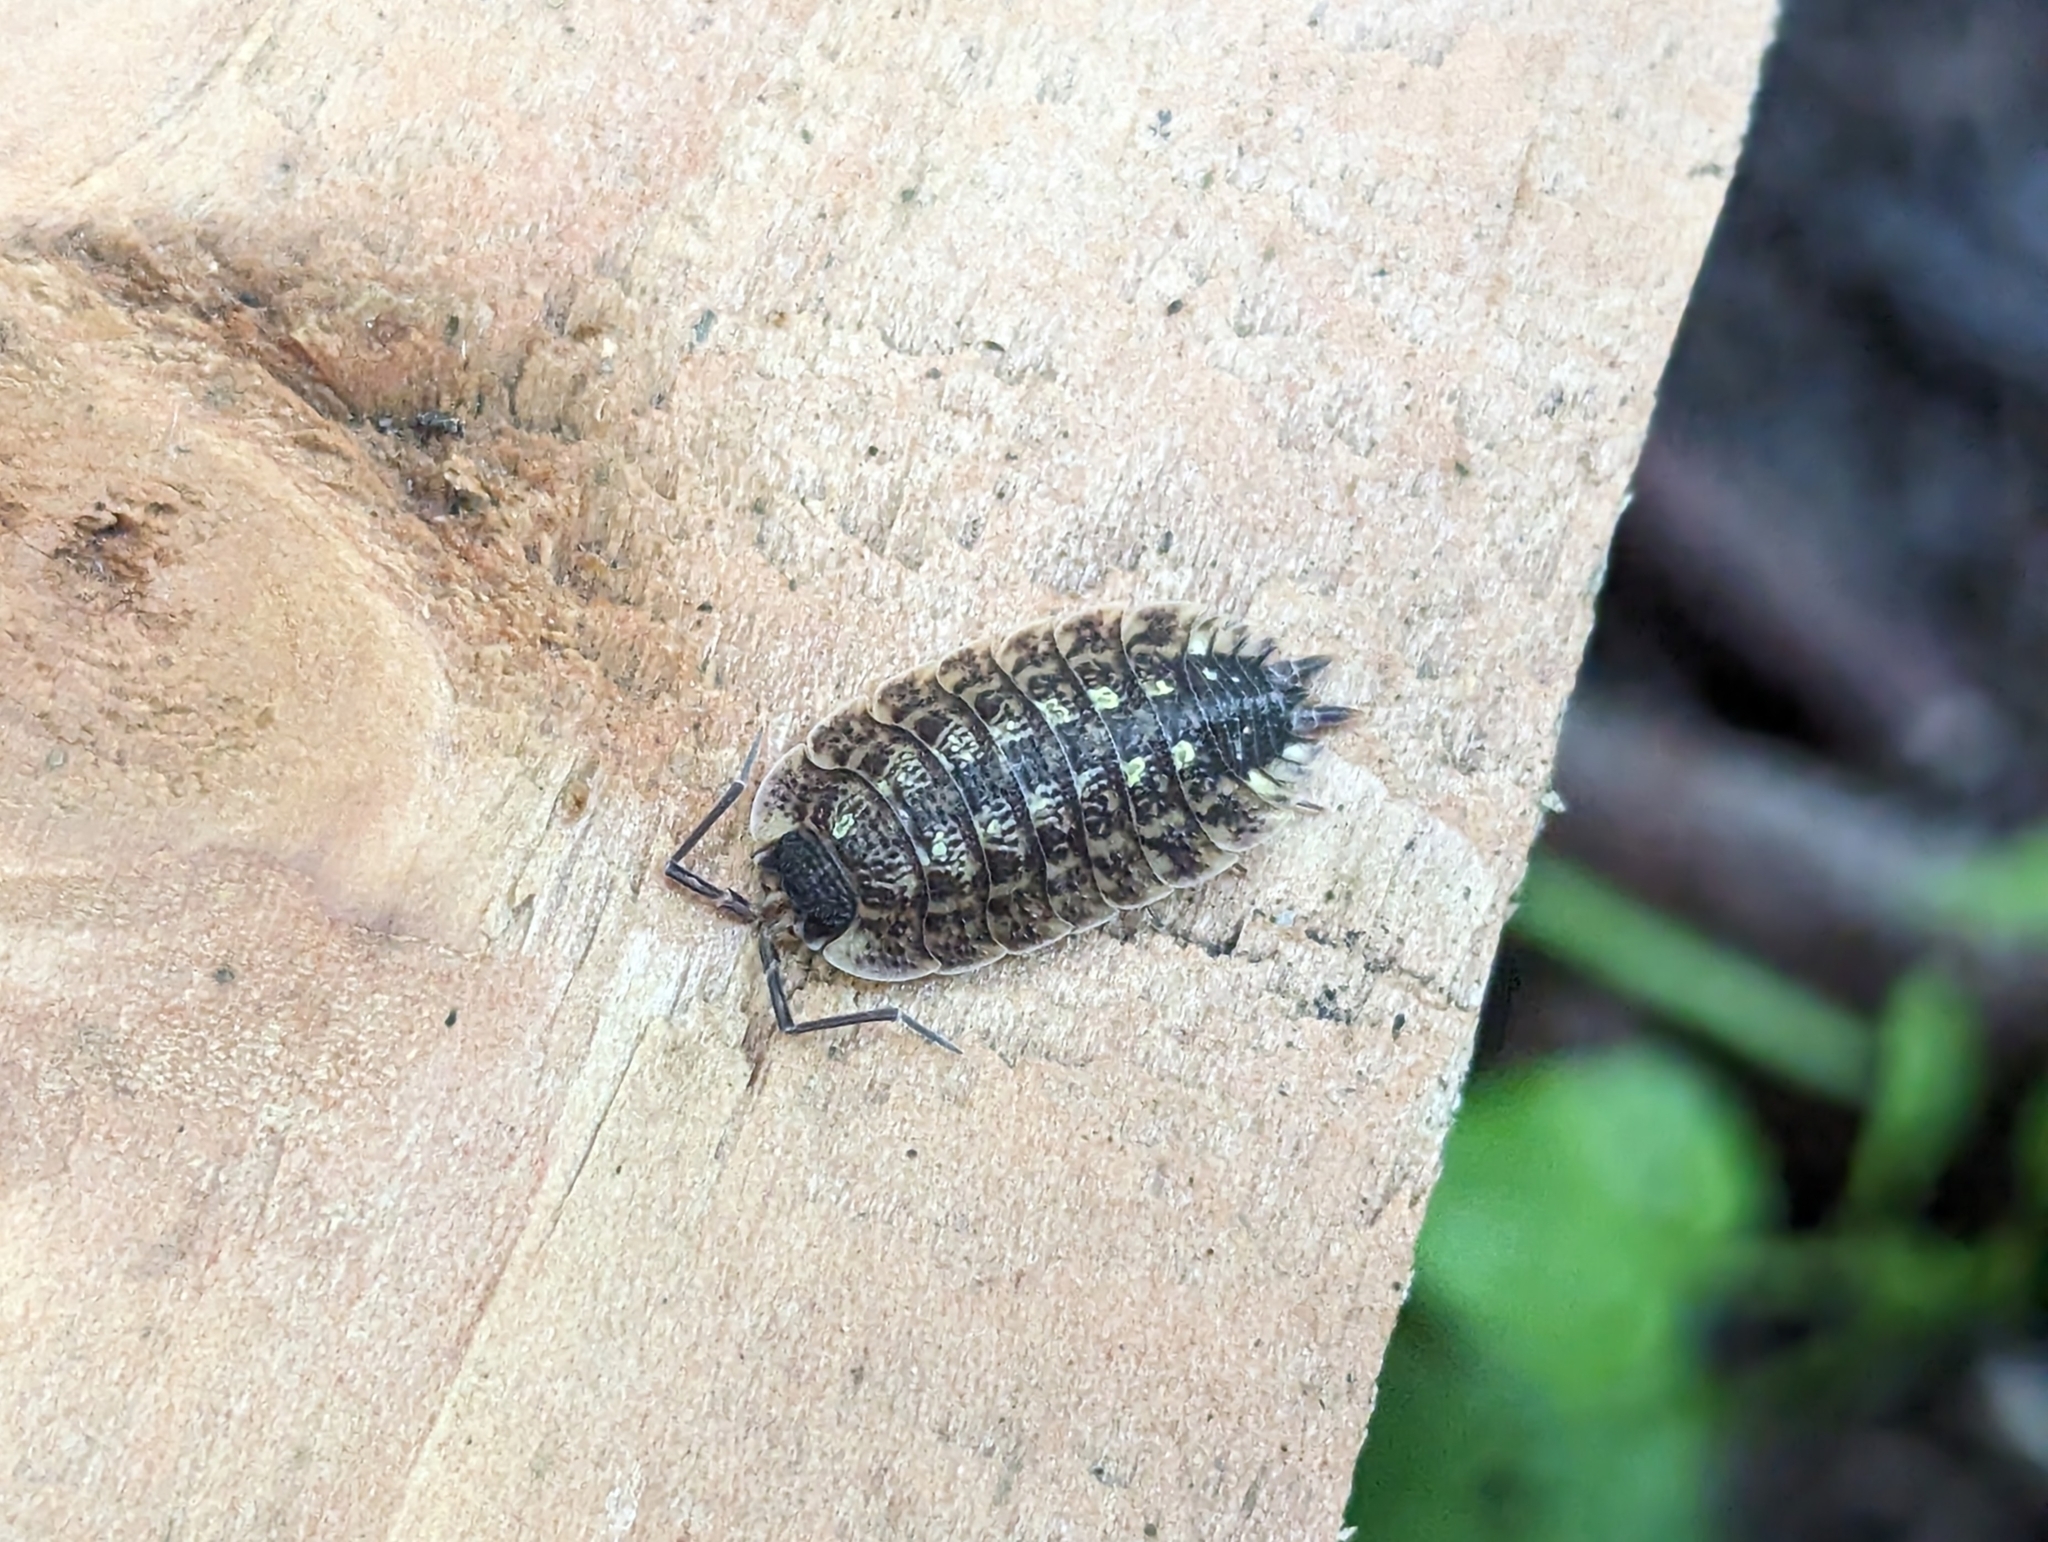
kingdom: Animalia
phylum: Arthropoda
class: Malacostraca
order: Isopoda
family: Porcellionidae
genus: Porcellio
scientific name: Porcellio spinicornis
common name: Painted woodlouse
